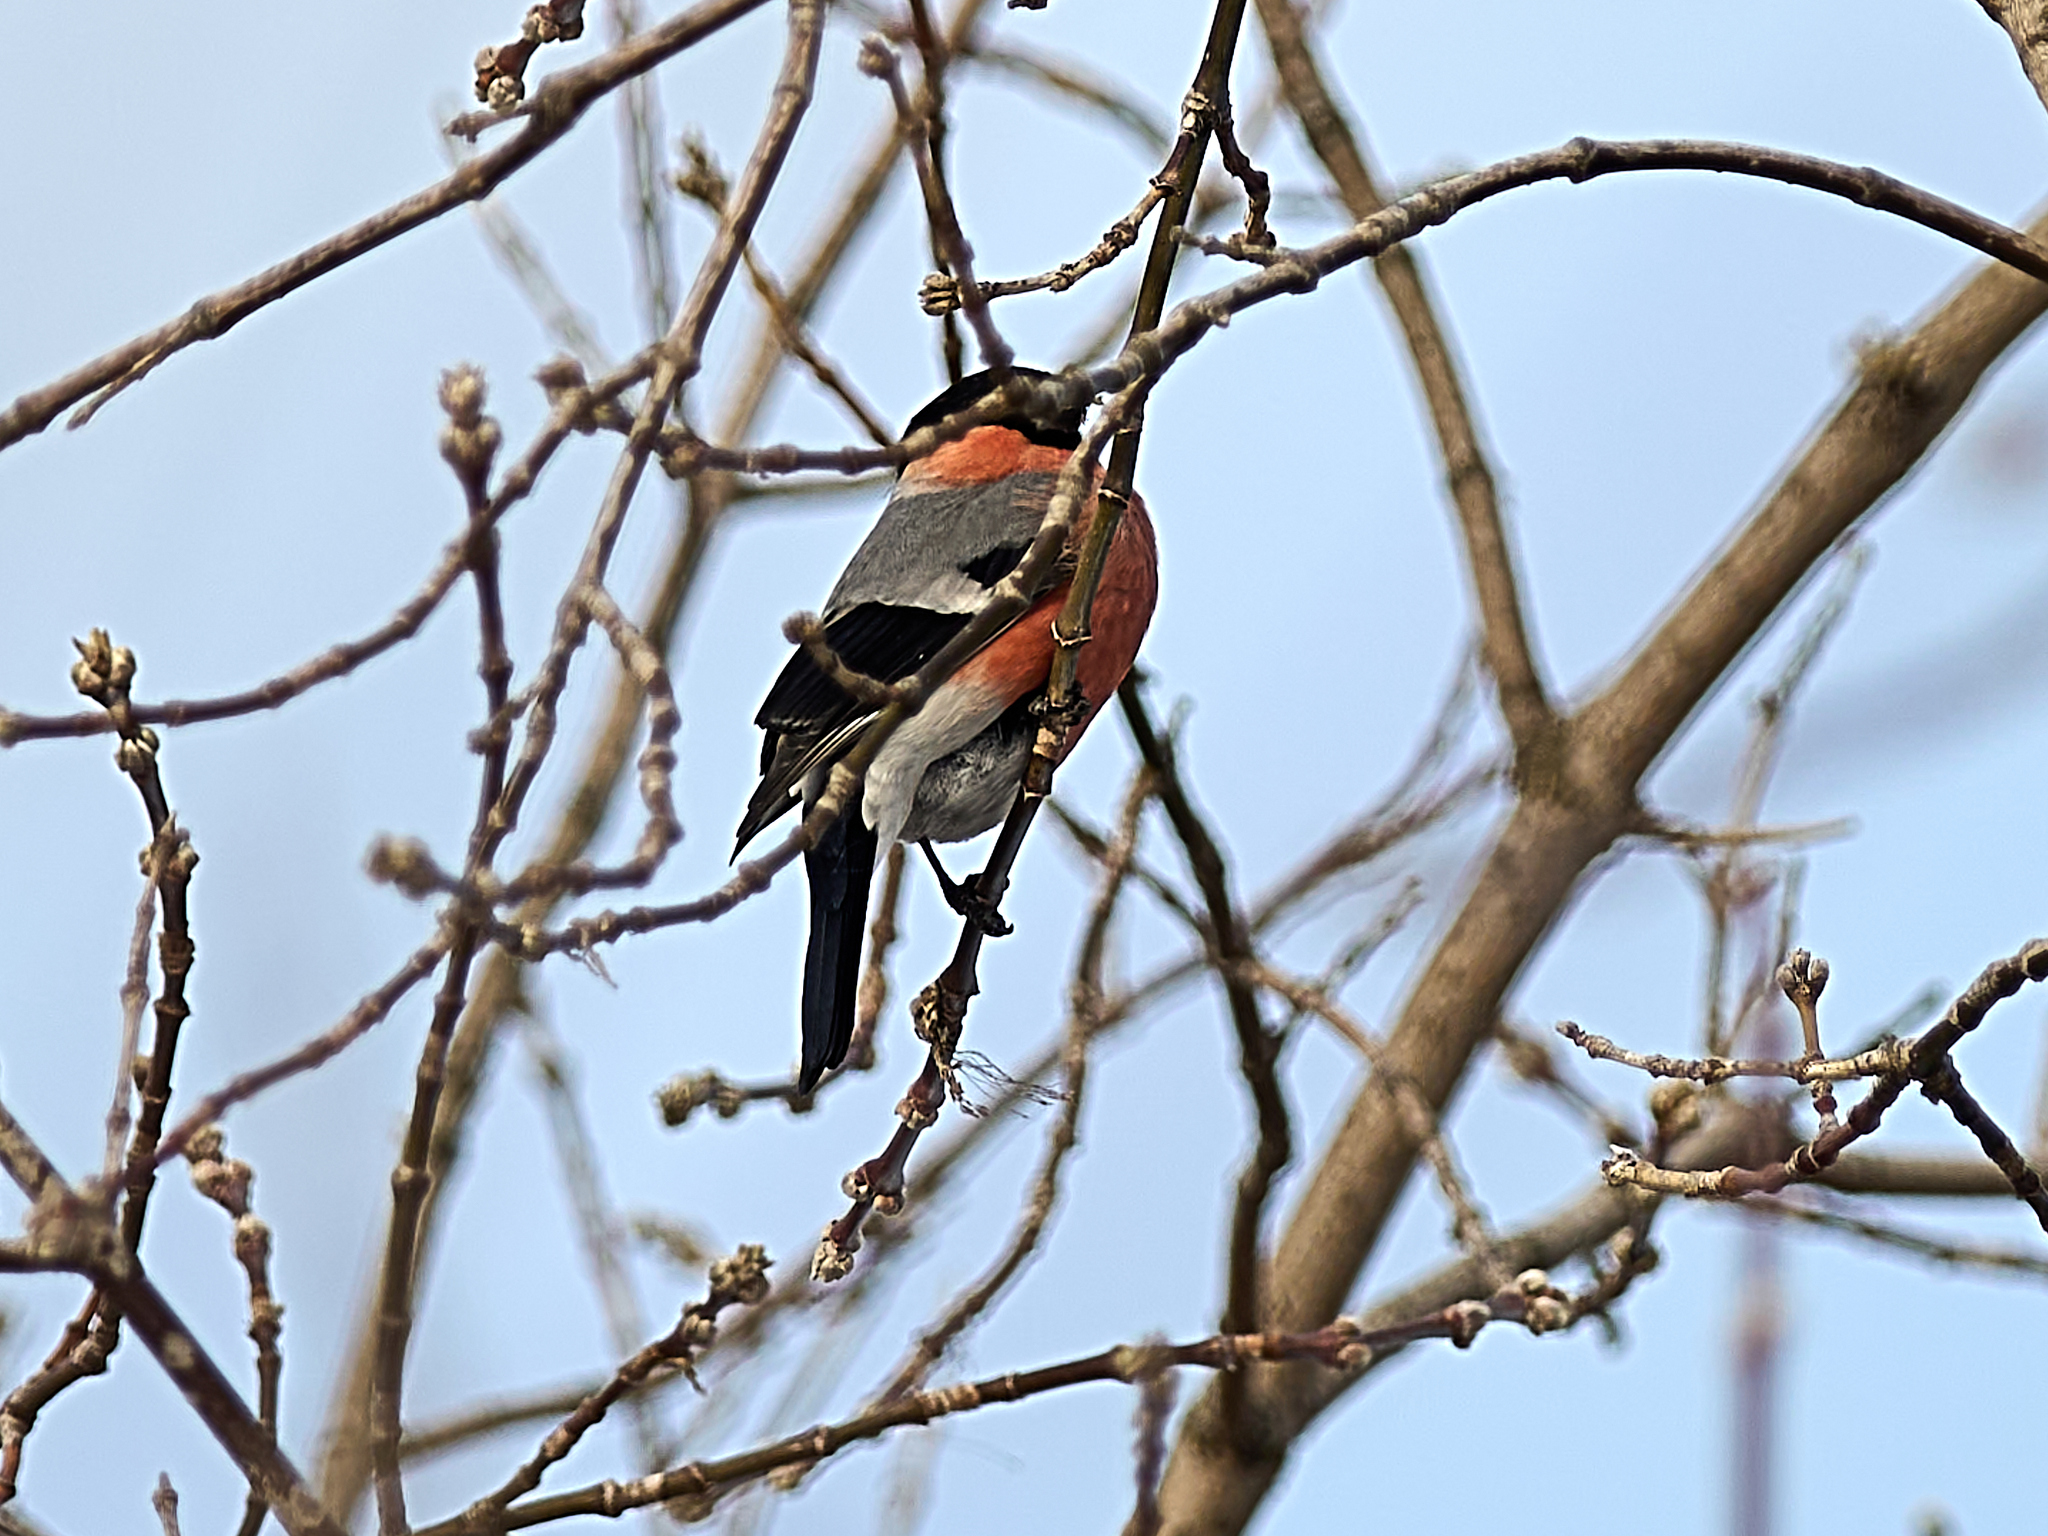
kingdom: Animalia
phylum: Chordata
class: Aves
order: Passeriformes
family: Fringillidae
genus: Pyrrhula
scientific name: Pyrrhula pyrrhula
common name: Eurasian bullfinch
